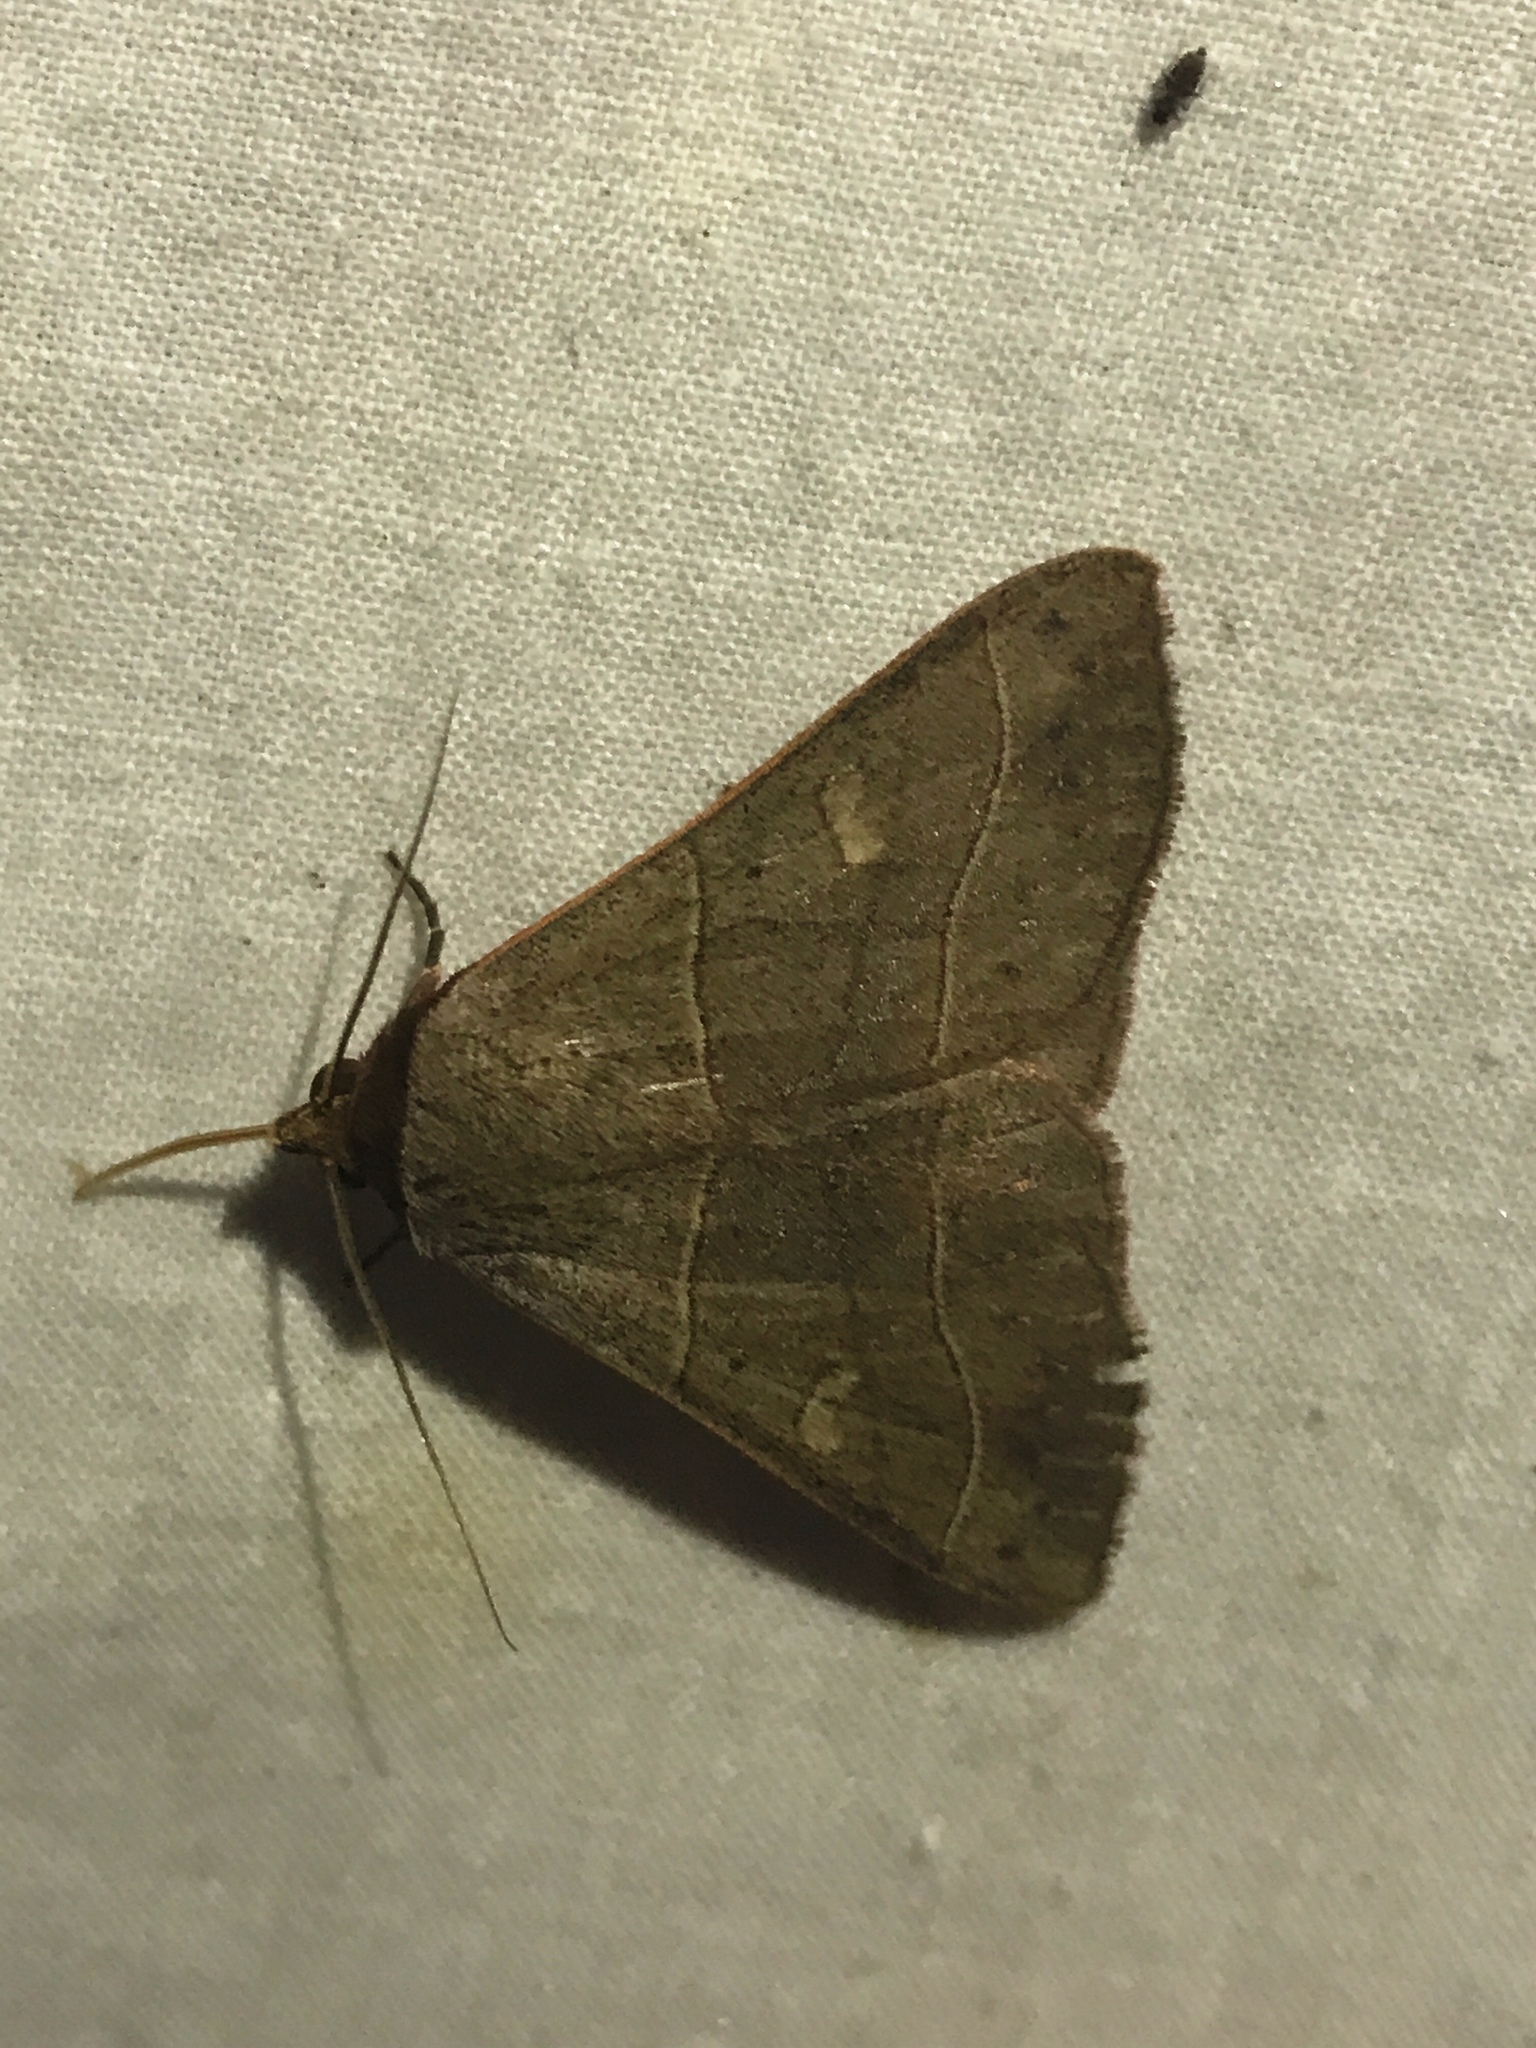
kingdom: Animalia
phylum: Arthropoda
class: Insecta
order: Lepidoptera
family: Erebidae
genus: Panopoda
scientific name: Panopoda rufimargo
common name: Red-lined panopoda moth
